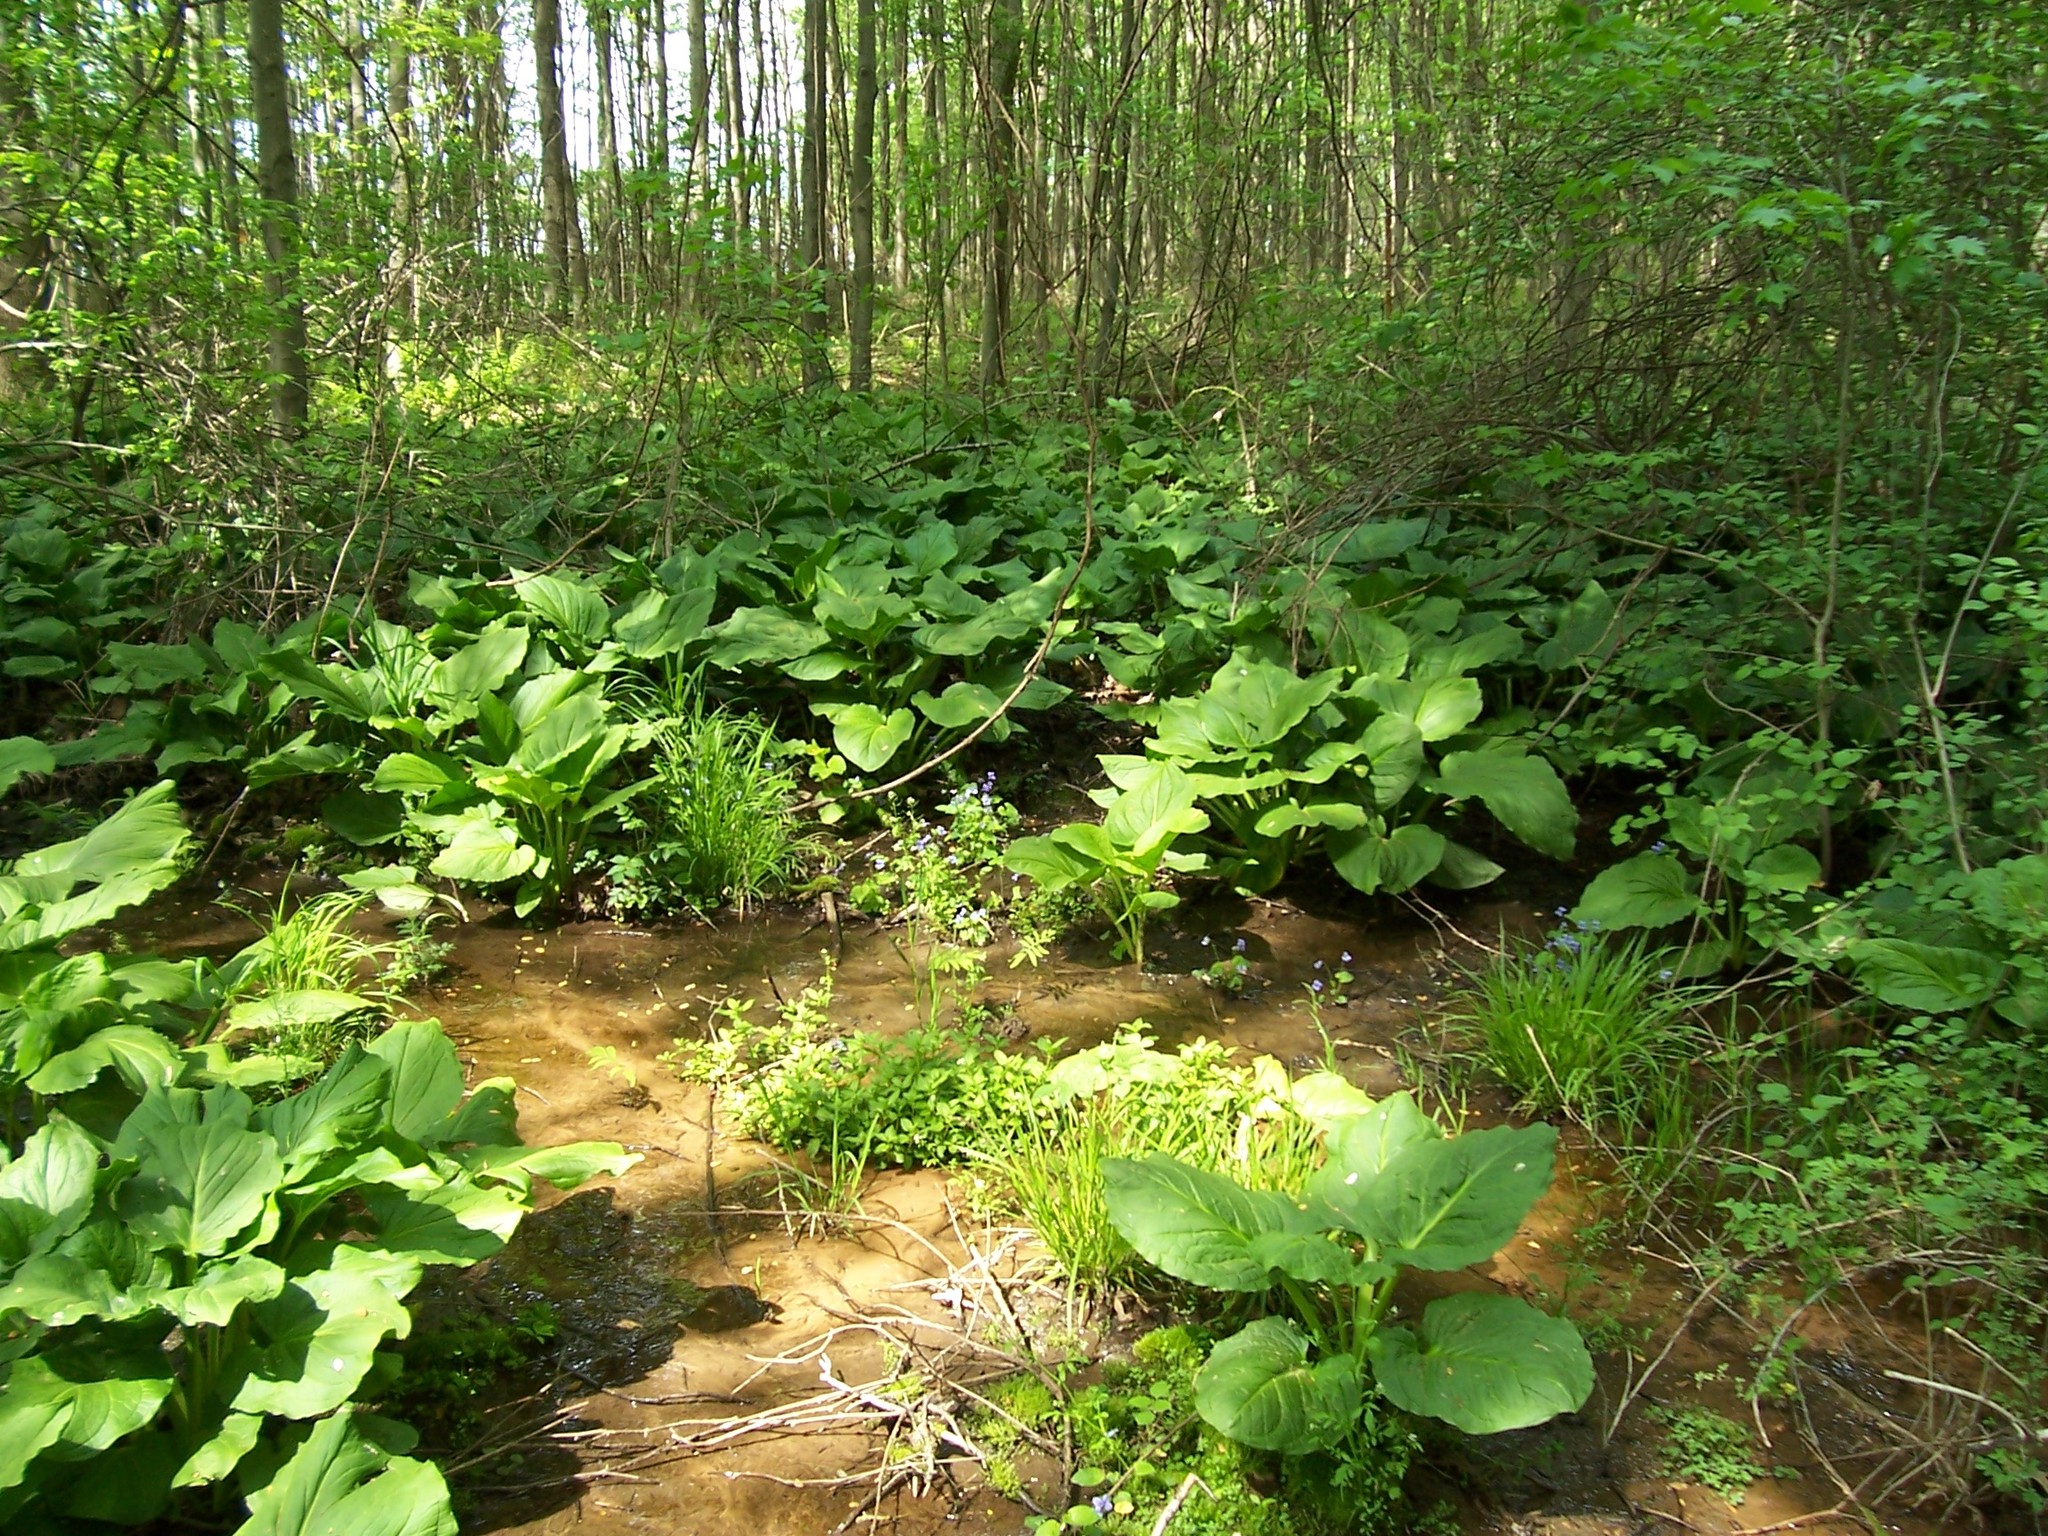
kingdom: Plantae
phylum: Tracheophyta
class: Liliopsida
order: Alismatales
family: Araceae
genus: Symplocarpus
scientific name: Symplocarpus foetidus
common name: Eastern skunk cabbage
